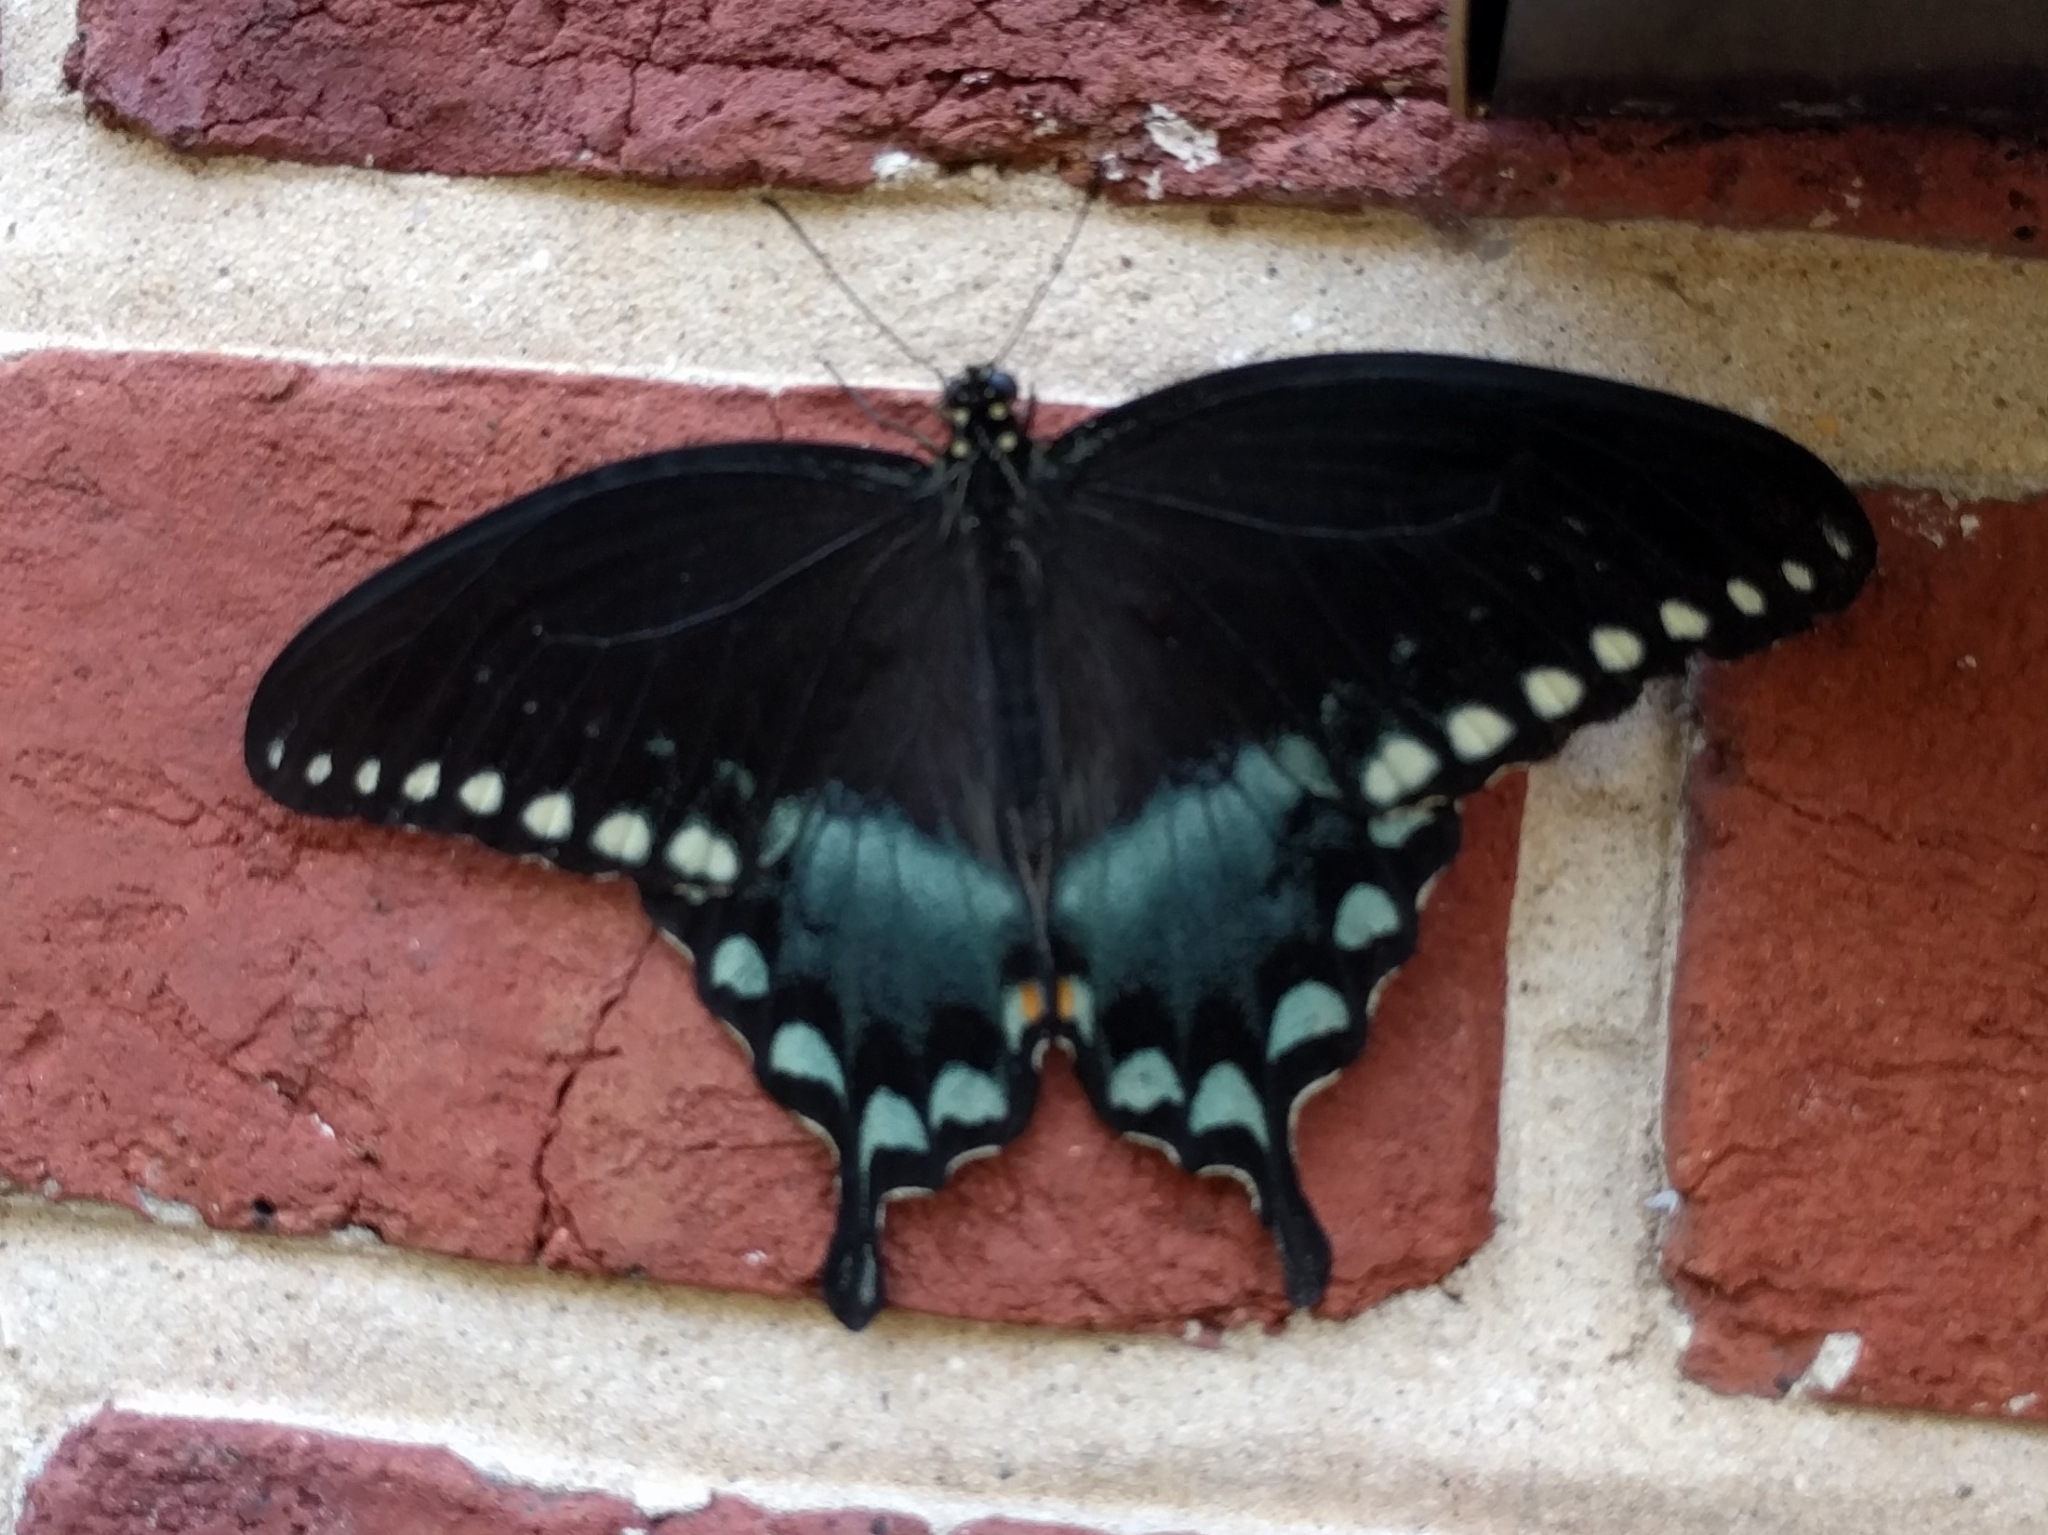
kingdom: Animalia
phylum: Arthropoda
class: Insecta
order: Lepidoptera
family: Papilionidae
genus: Papilio
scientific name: Papilio troilus
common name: Spicebush swallowtail
